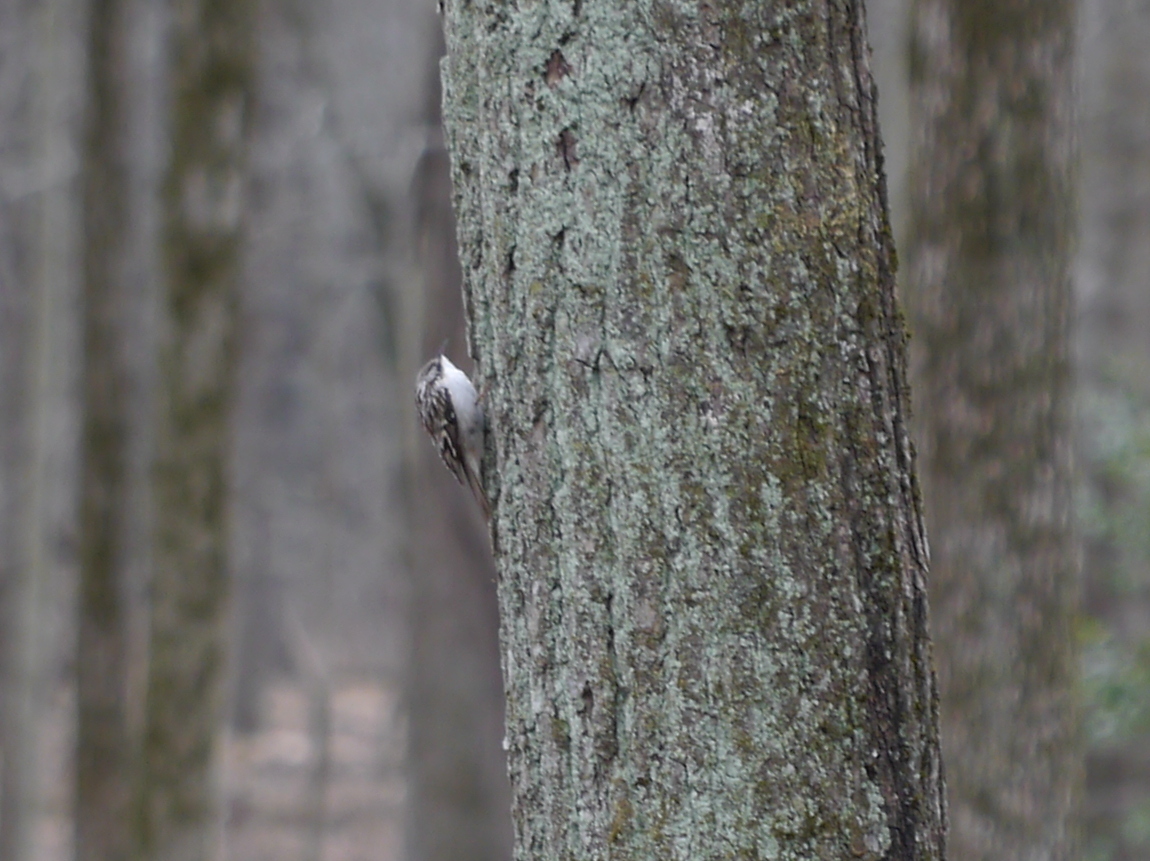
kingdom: Animalia
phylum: Chordata
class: Aves
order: Passeriformes
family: Certhiidae
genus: Certhia
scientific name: Certhia americana
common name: Brown creeper
